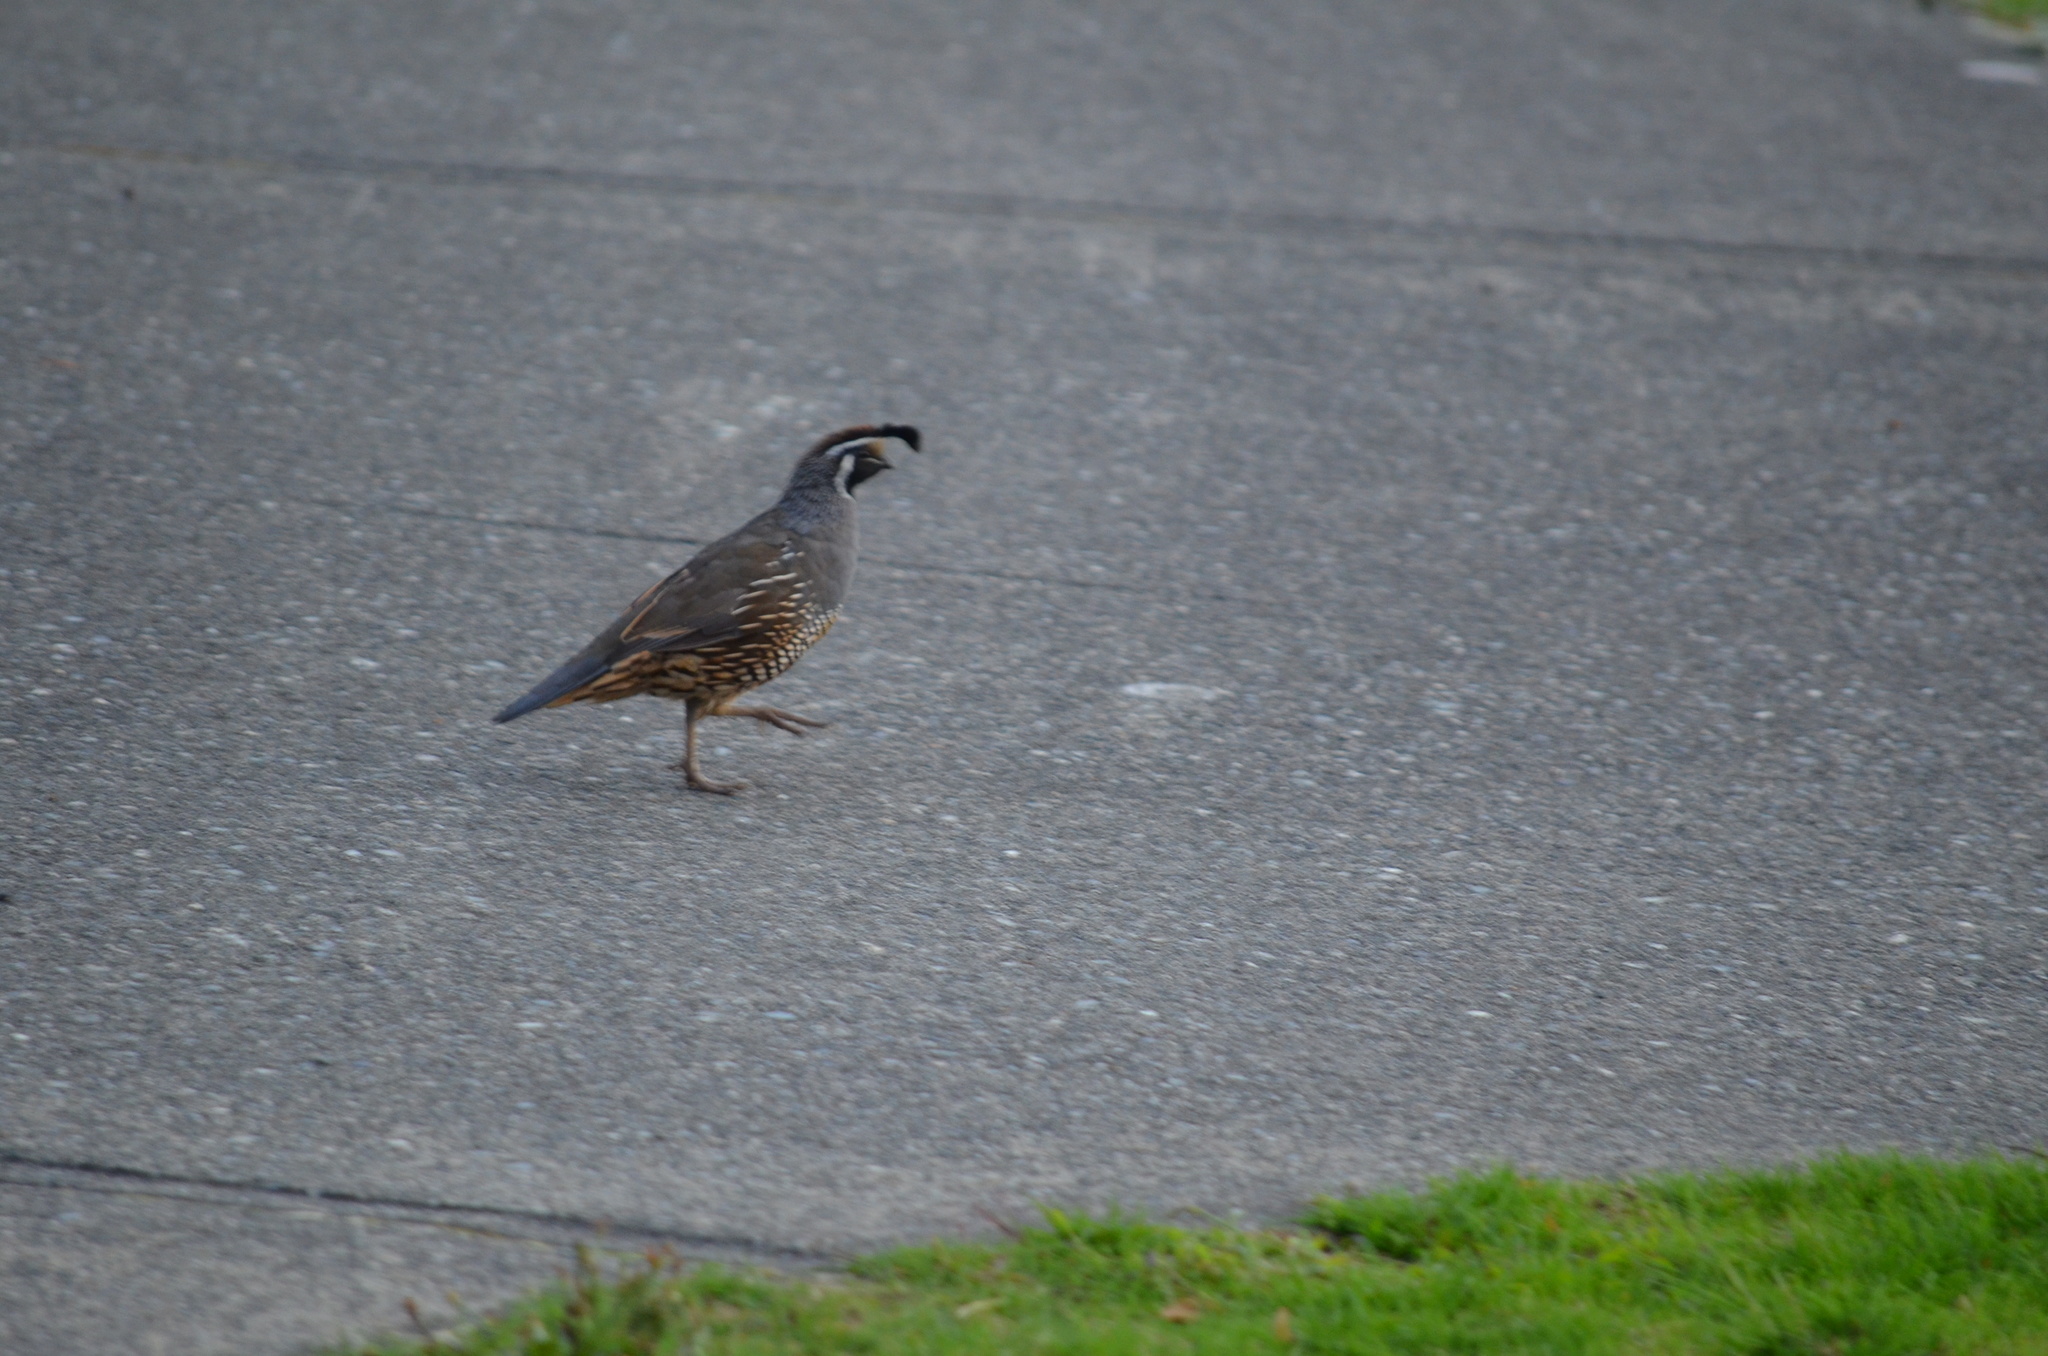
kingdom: Animalia
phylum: Chordata
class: Aves
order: Galliformes
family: Odontophoridae
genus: Callipepla
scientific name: Callipepla californica
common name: California quail
